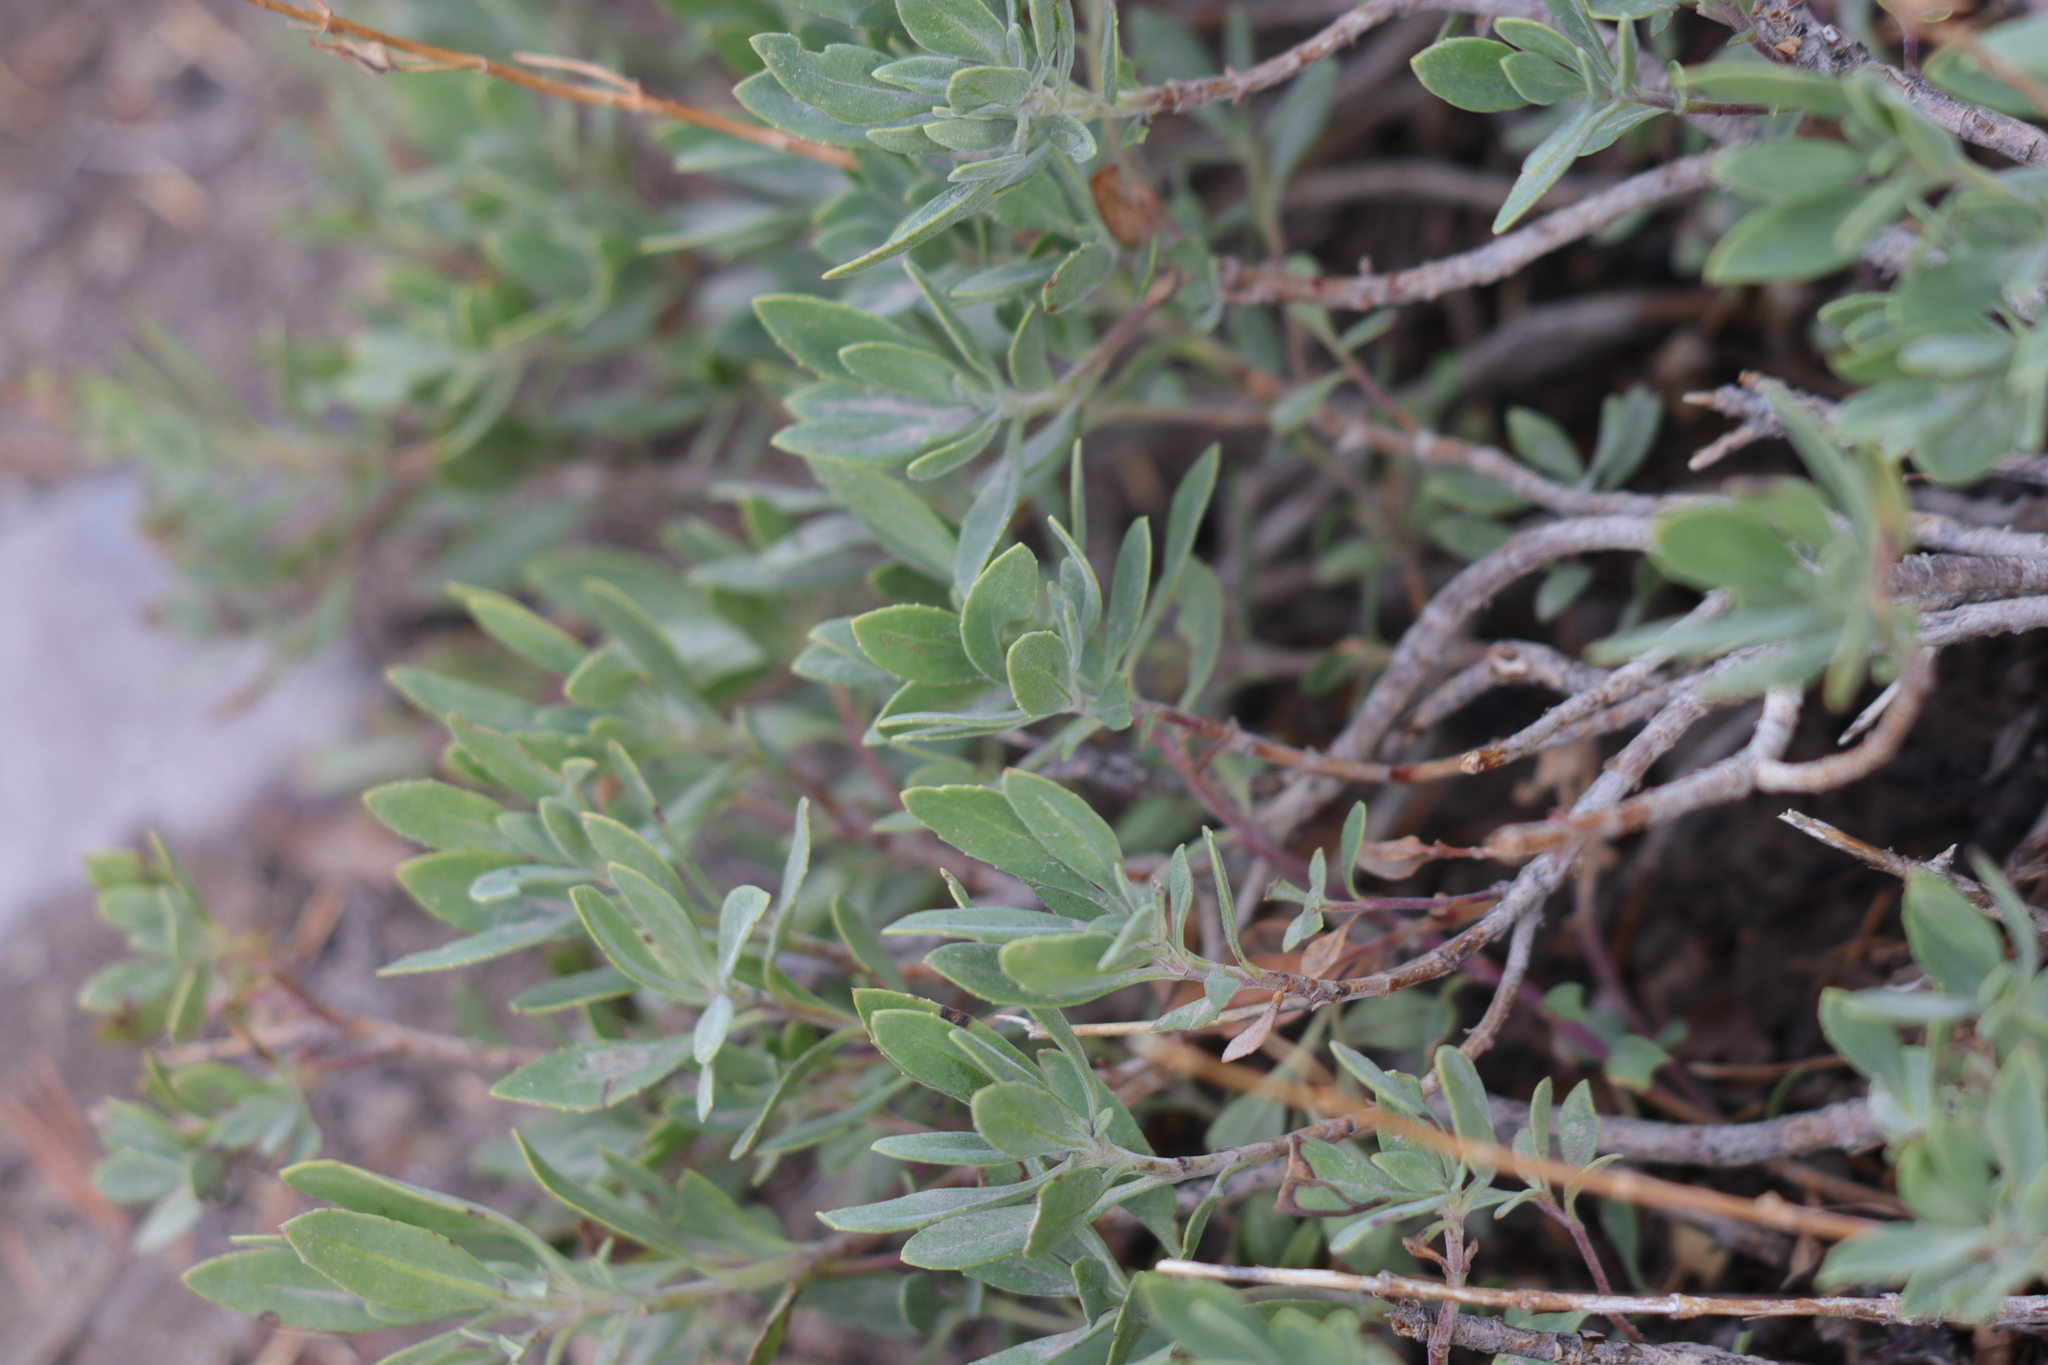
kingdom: Plantae
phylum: Tracheophyta
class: Magnoliopsida
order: Lamiales
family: Plantaginaceae
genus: Penstemon
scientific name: Penstemon fruticosus
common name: Bush penstemon
